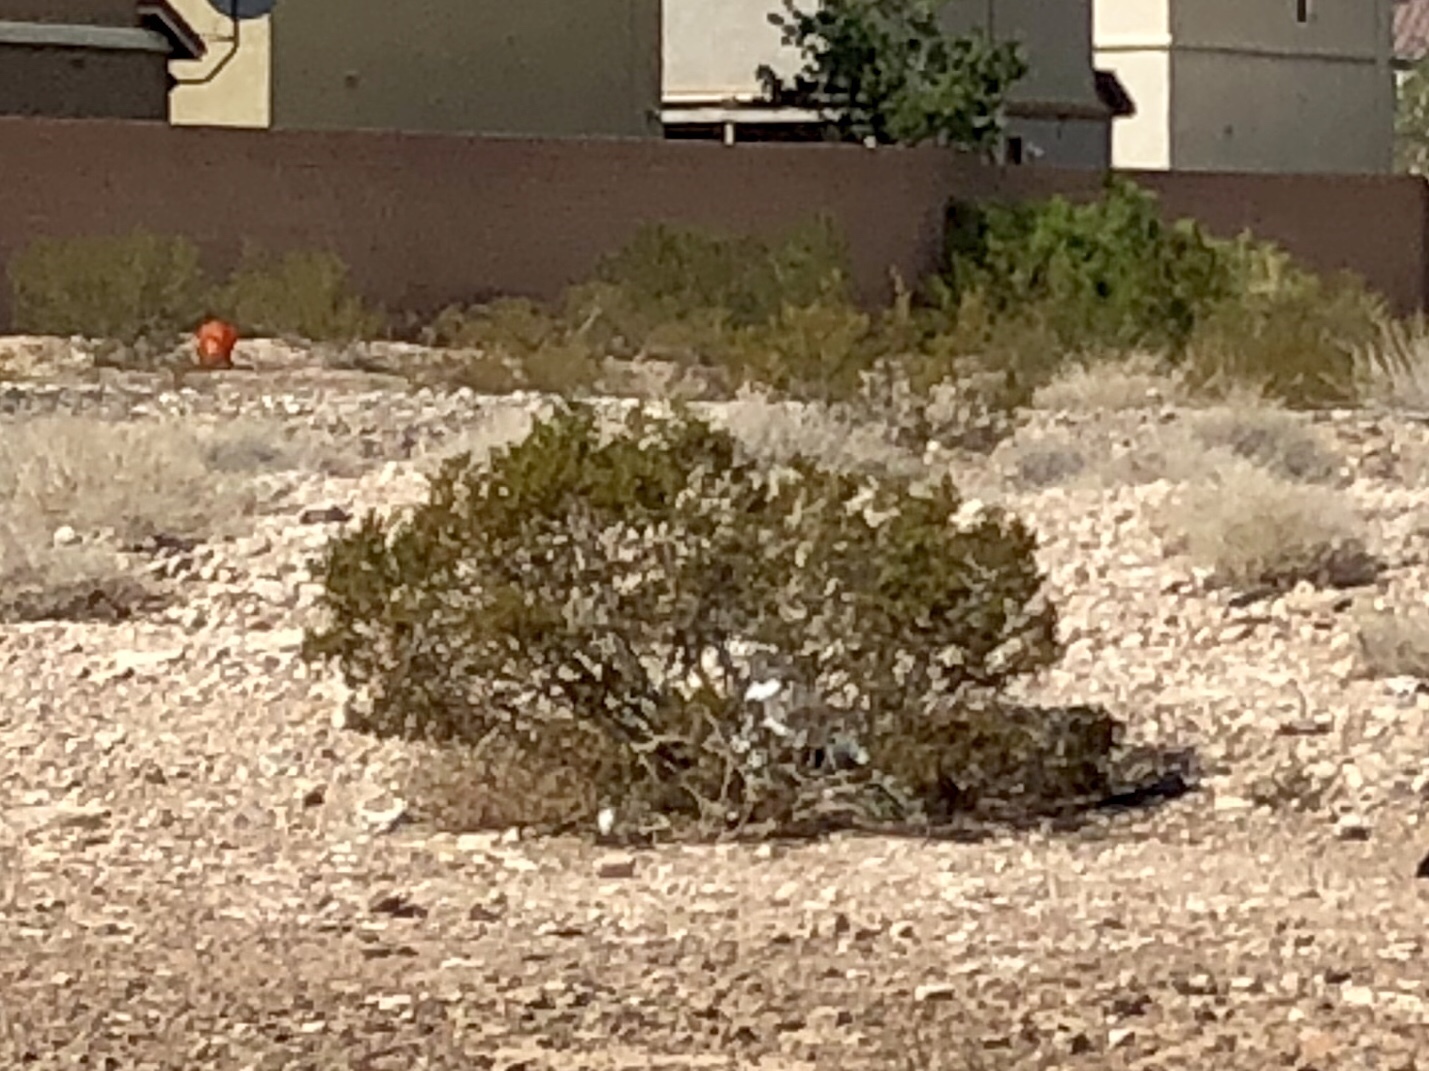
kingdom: Plantae
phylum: Tracheophyta
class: Magnoliopsida
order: Zygophyllales
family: Zygophyllaceae
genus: Larrea
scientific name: Larrea tridentata
